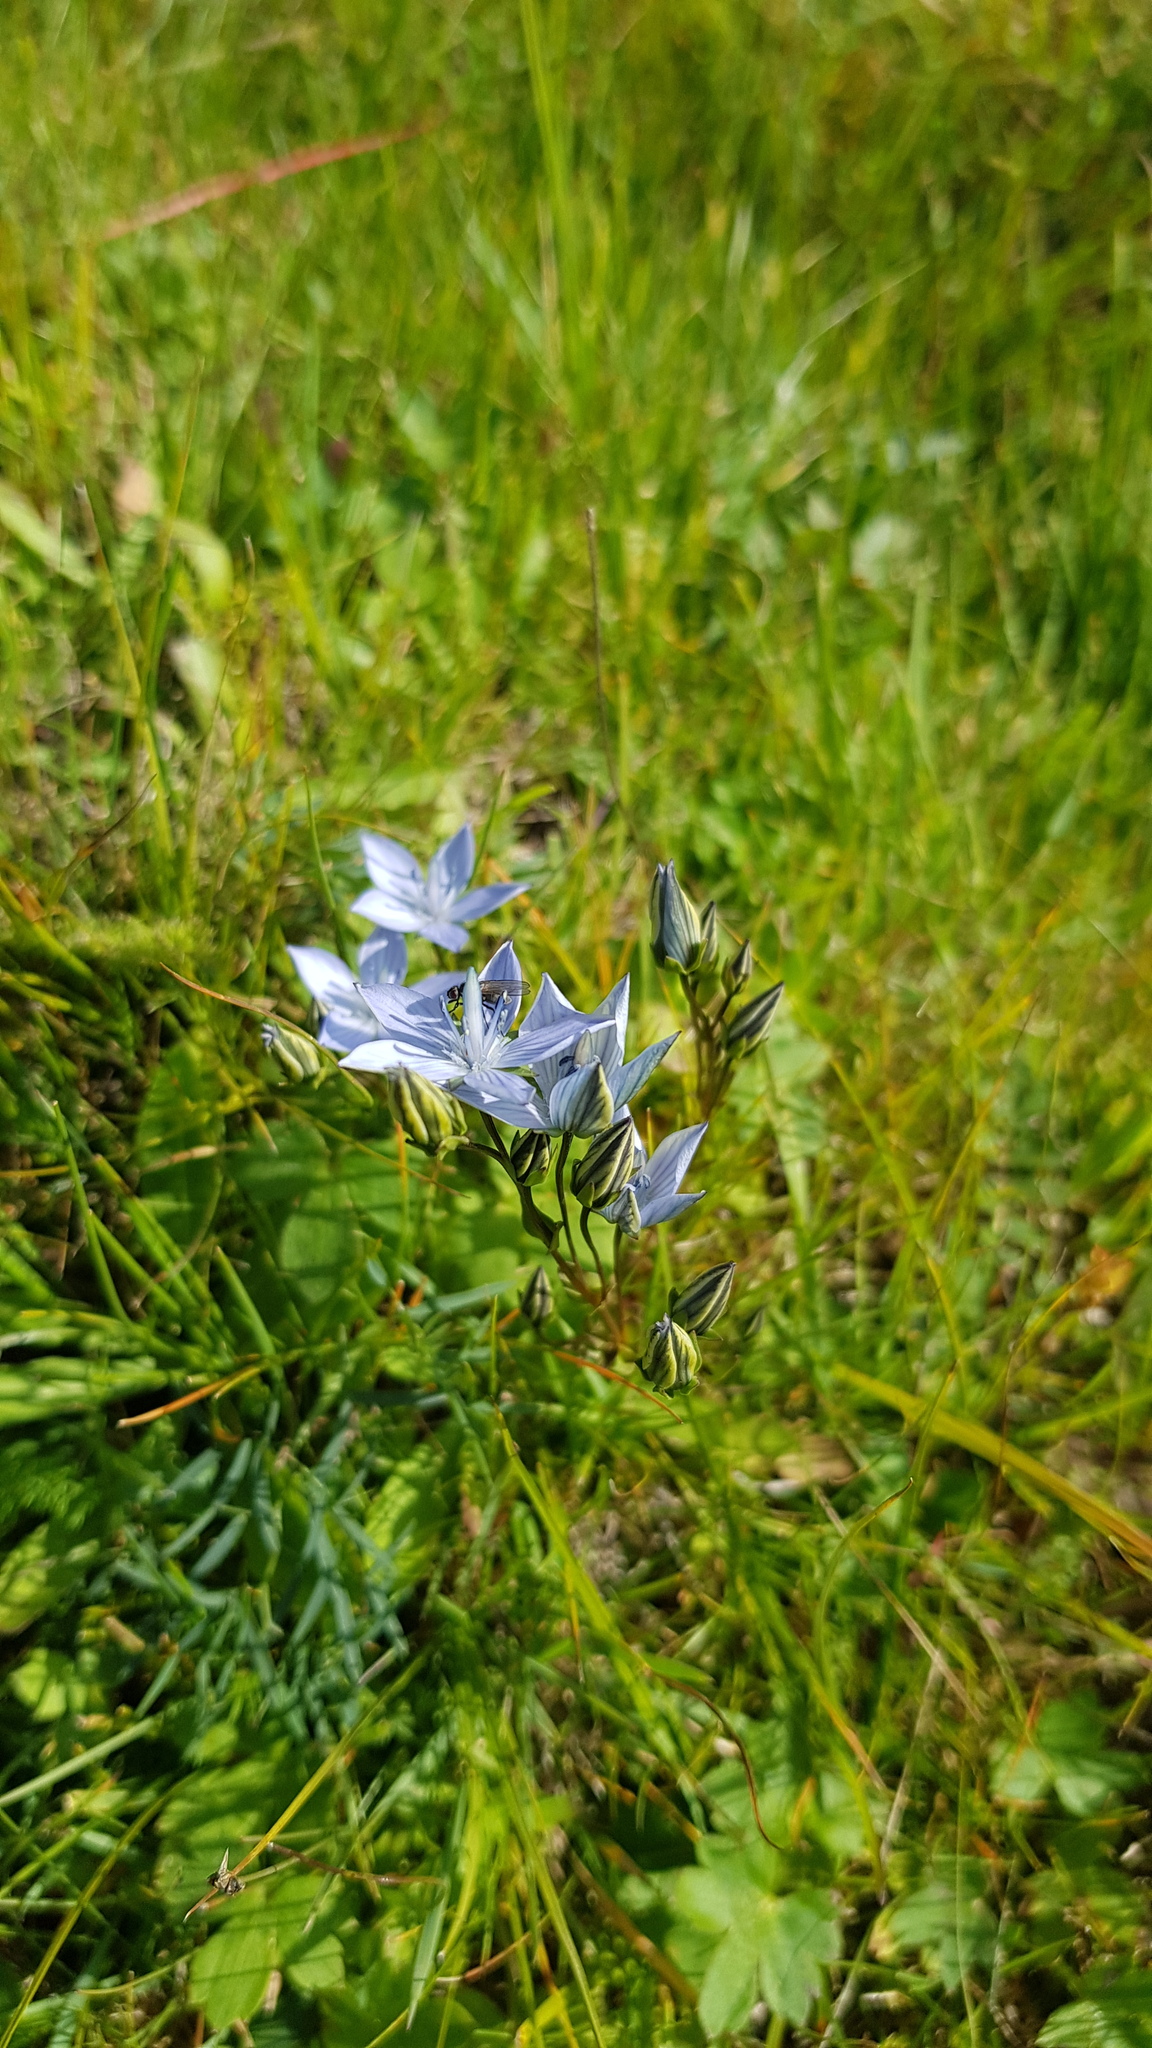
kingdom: Plantae
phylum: Tracheophyta
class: Magnoliopsida
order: Gentianales
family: Gentianaceae
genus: Lomatogonium
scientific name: Lomatogonium carinthiacum
